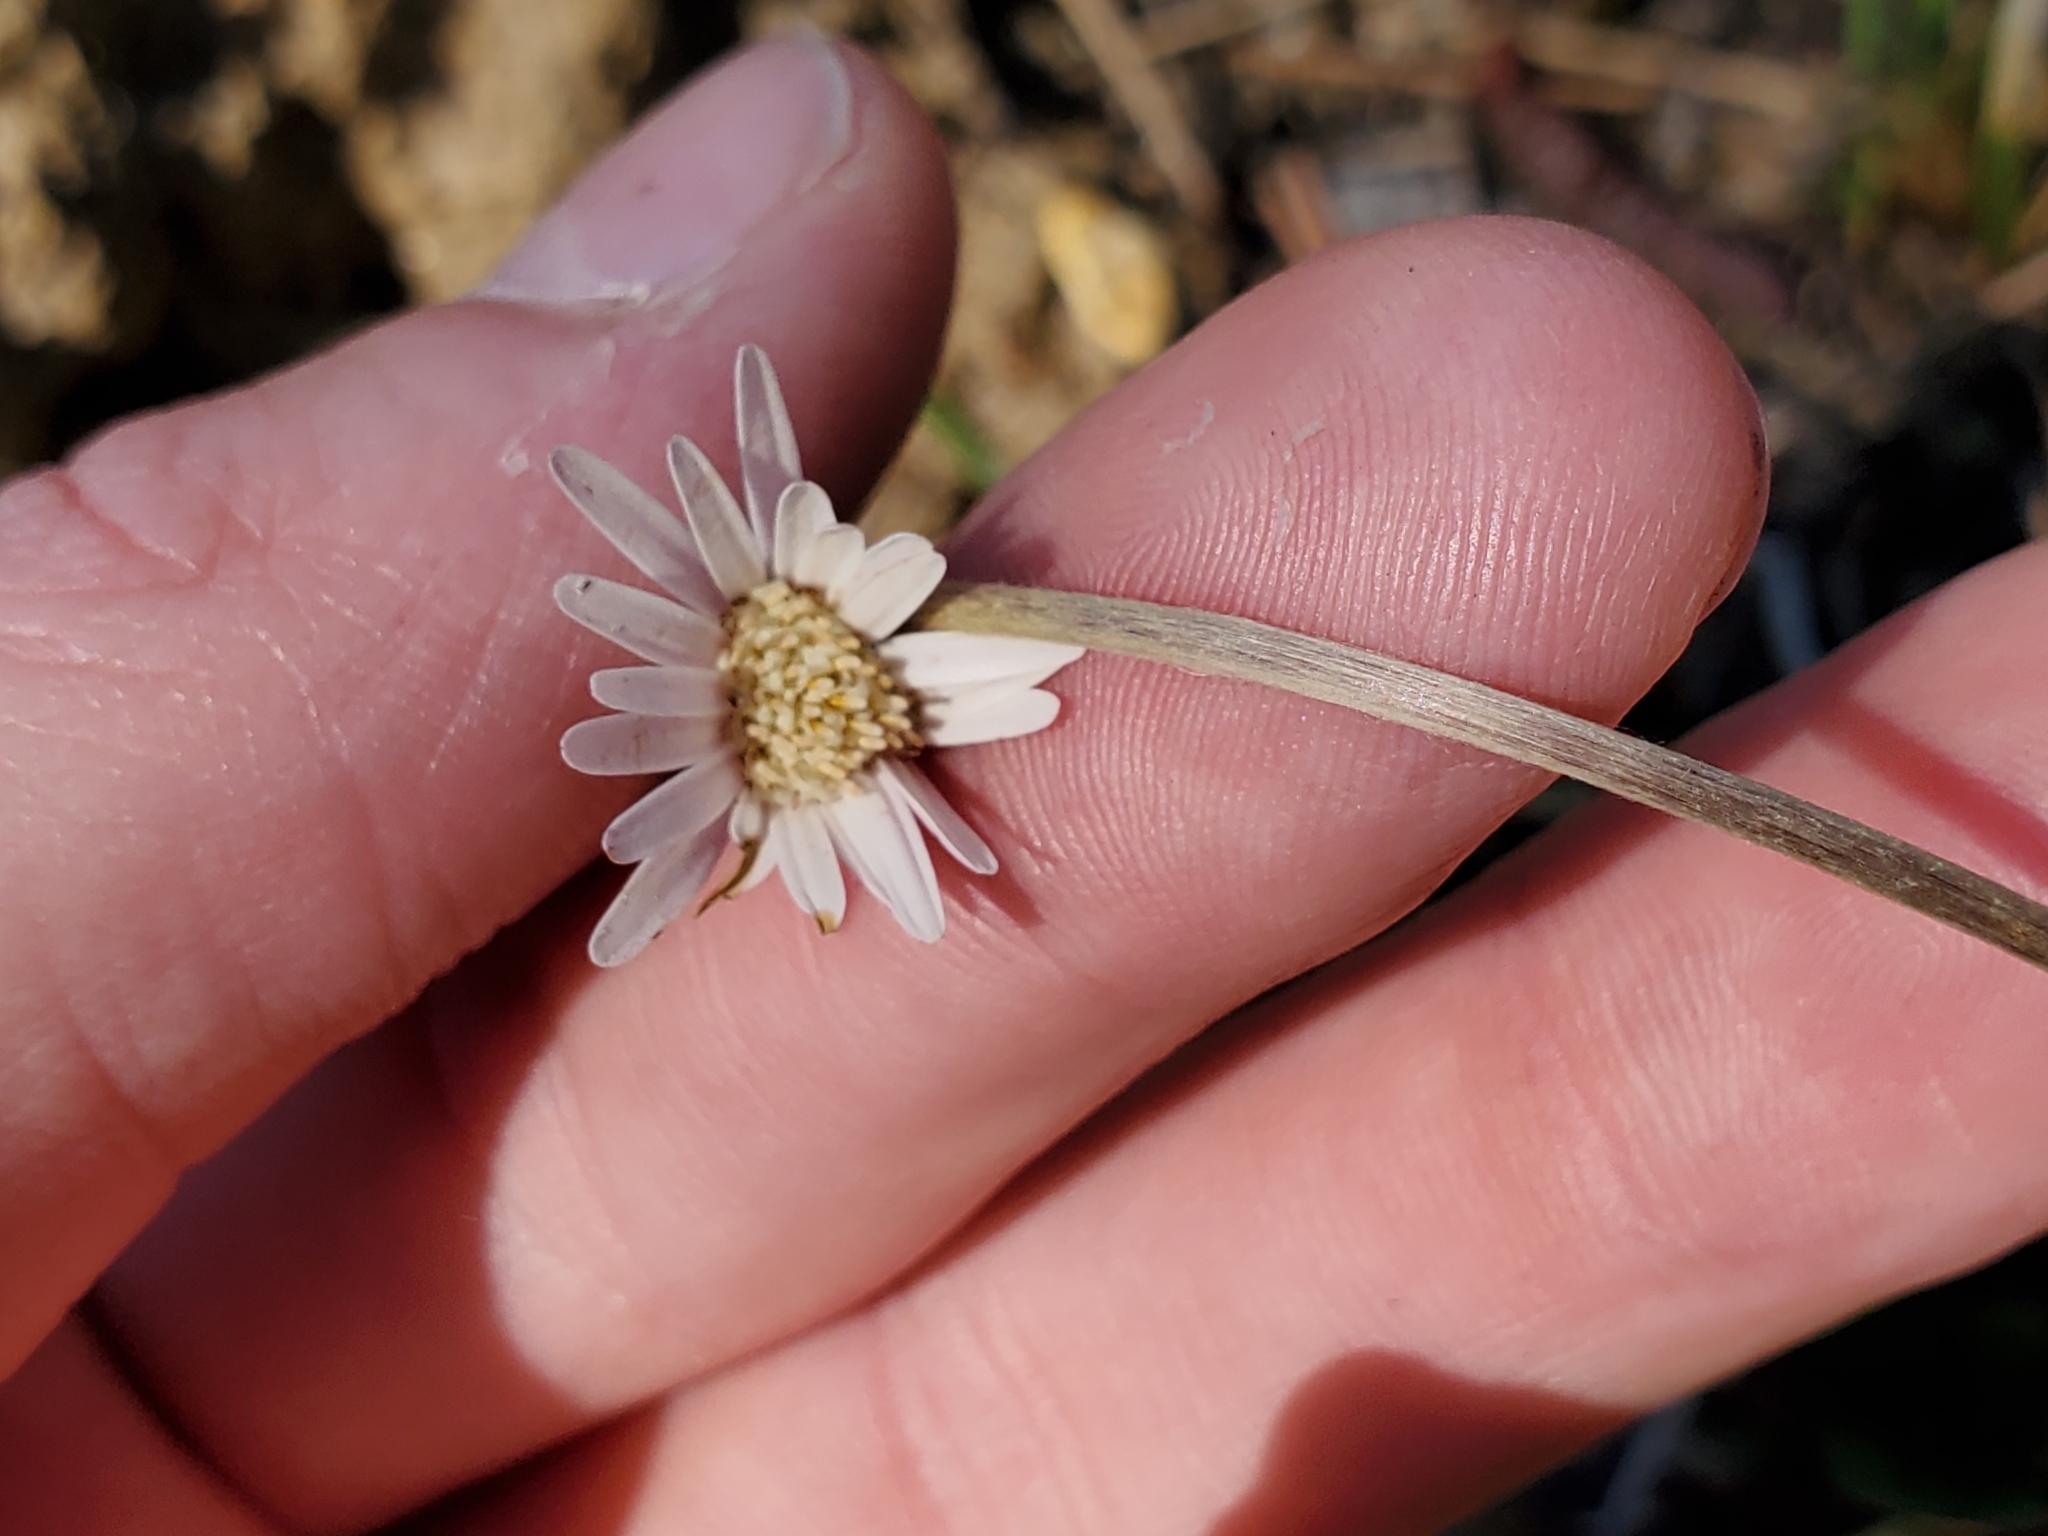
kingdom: Plantae
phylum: Tracheophyta
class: Magnoliopsida
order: Asterales
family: Asteraceae
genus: Chaptalia
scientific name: Chaptalia tomentosa
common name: Woolly sunbonnet
